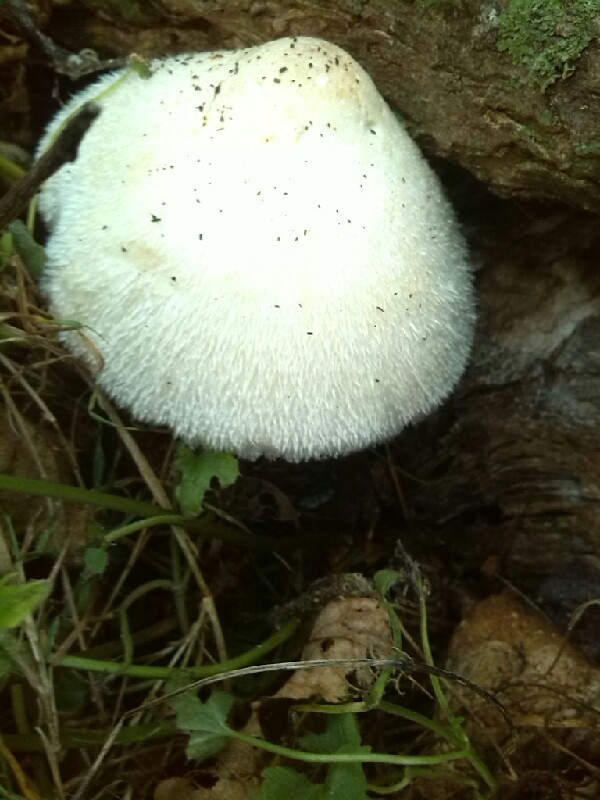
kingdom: Fungi
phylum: Basidiomycota
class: Agaricomycetes
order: Agaricales
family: Pluteaceae
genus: Volvariella
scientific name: Volvariella bombycina
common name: Silky rosegill
